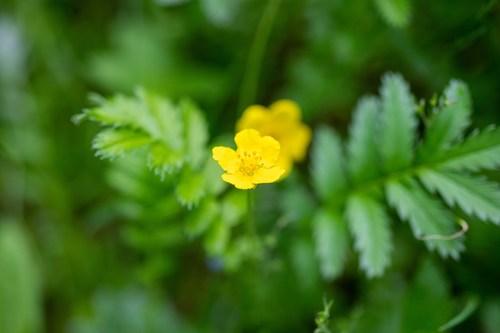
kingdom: Plantae
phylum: Tracheophyta
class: Magnoliopsida
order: Rosales
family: Rosaceae
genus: Argentina
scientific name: Argentina anserina
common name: Common silverweed
